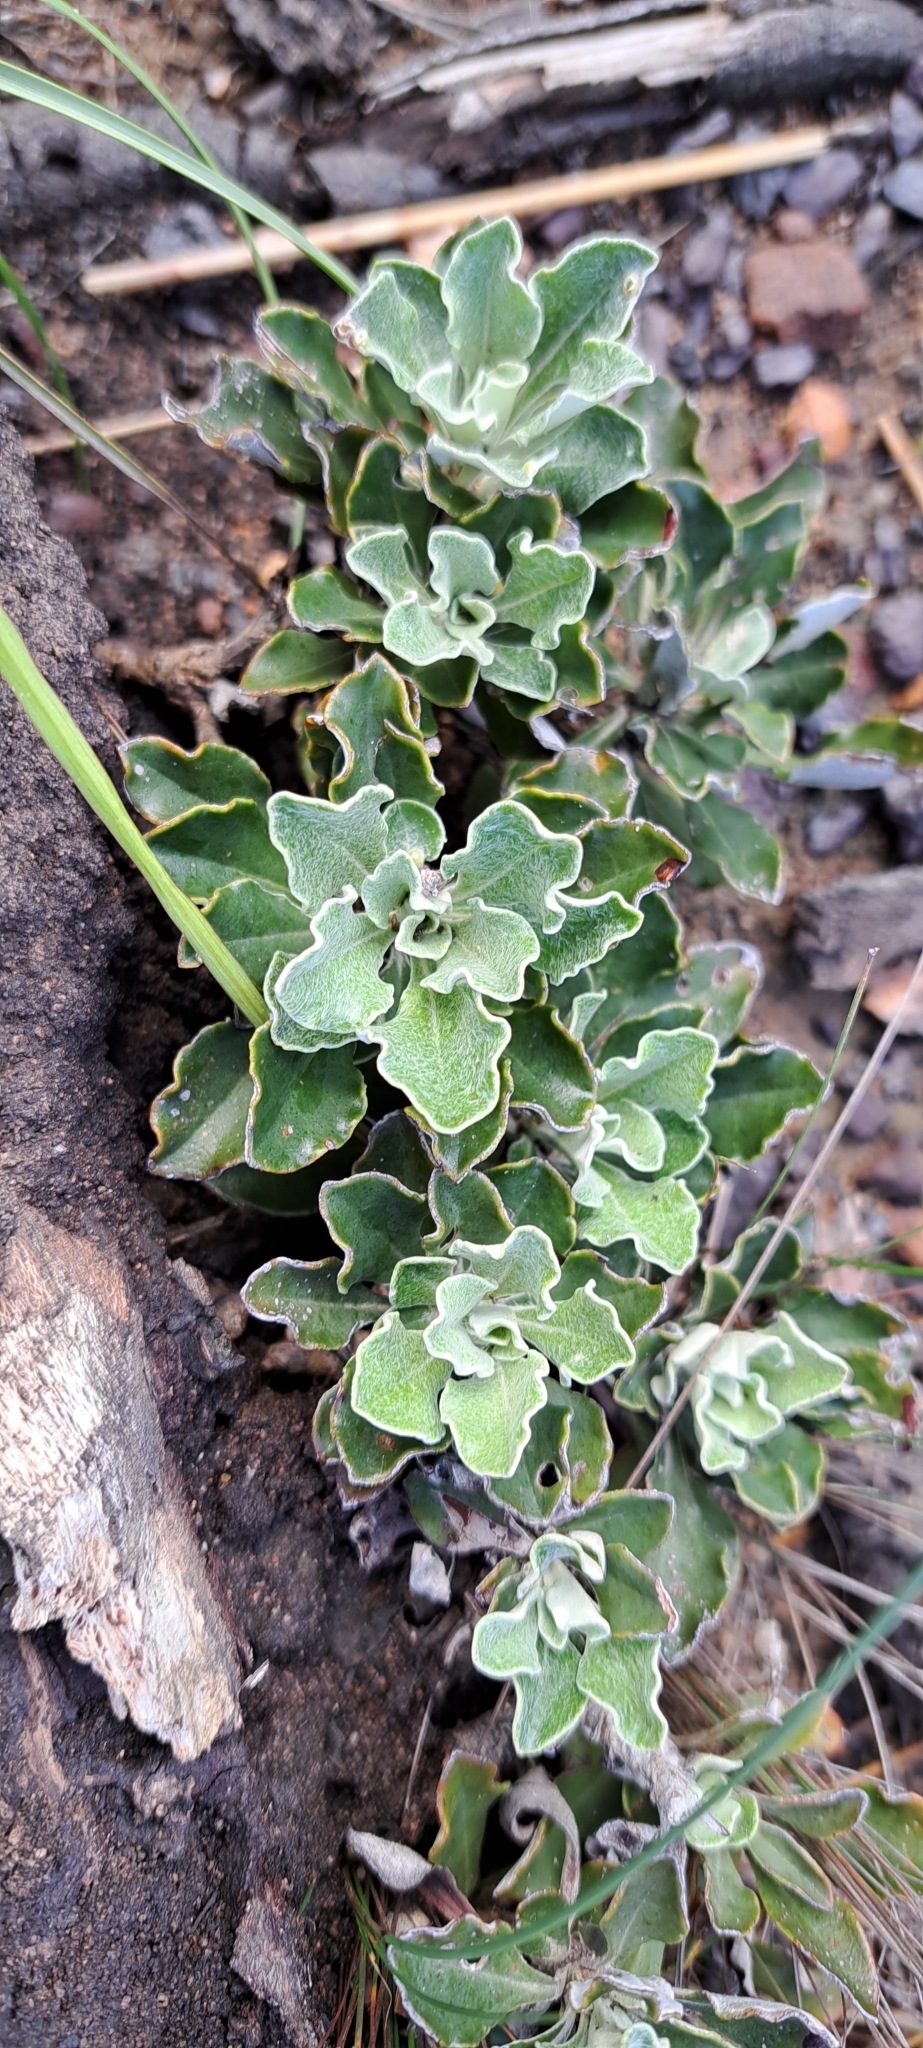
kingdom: Plantae
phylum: Tracheophyta
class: Magnoliopsida
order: Asterales
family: Asteraceae
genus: Osteospermum
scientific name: Osteospermum tomentosum
